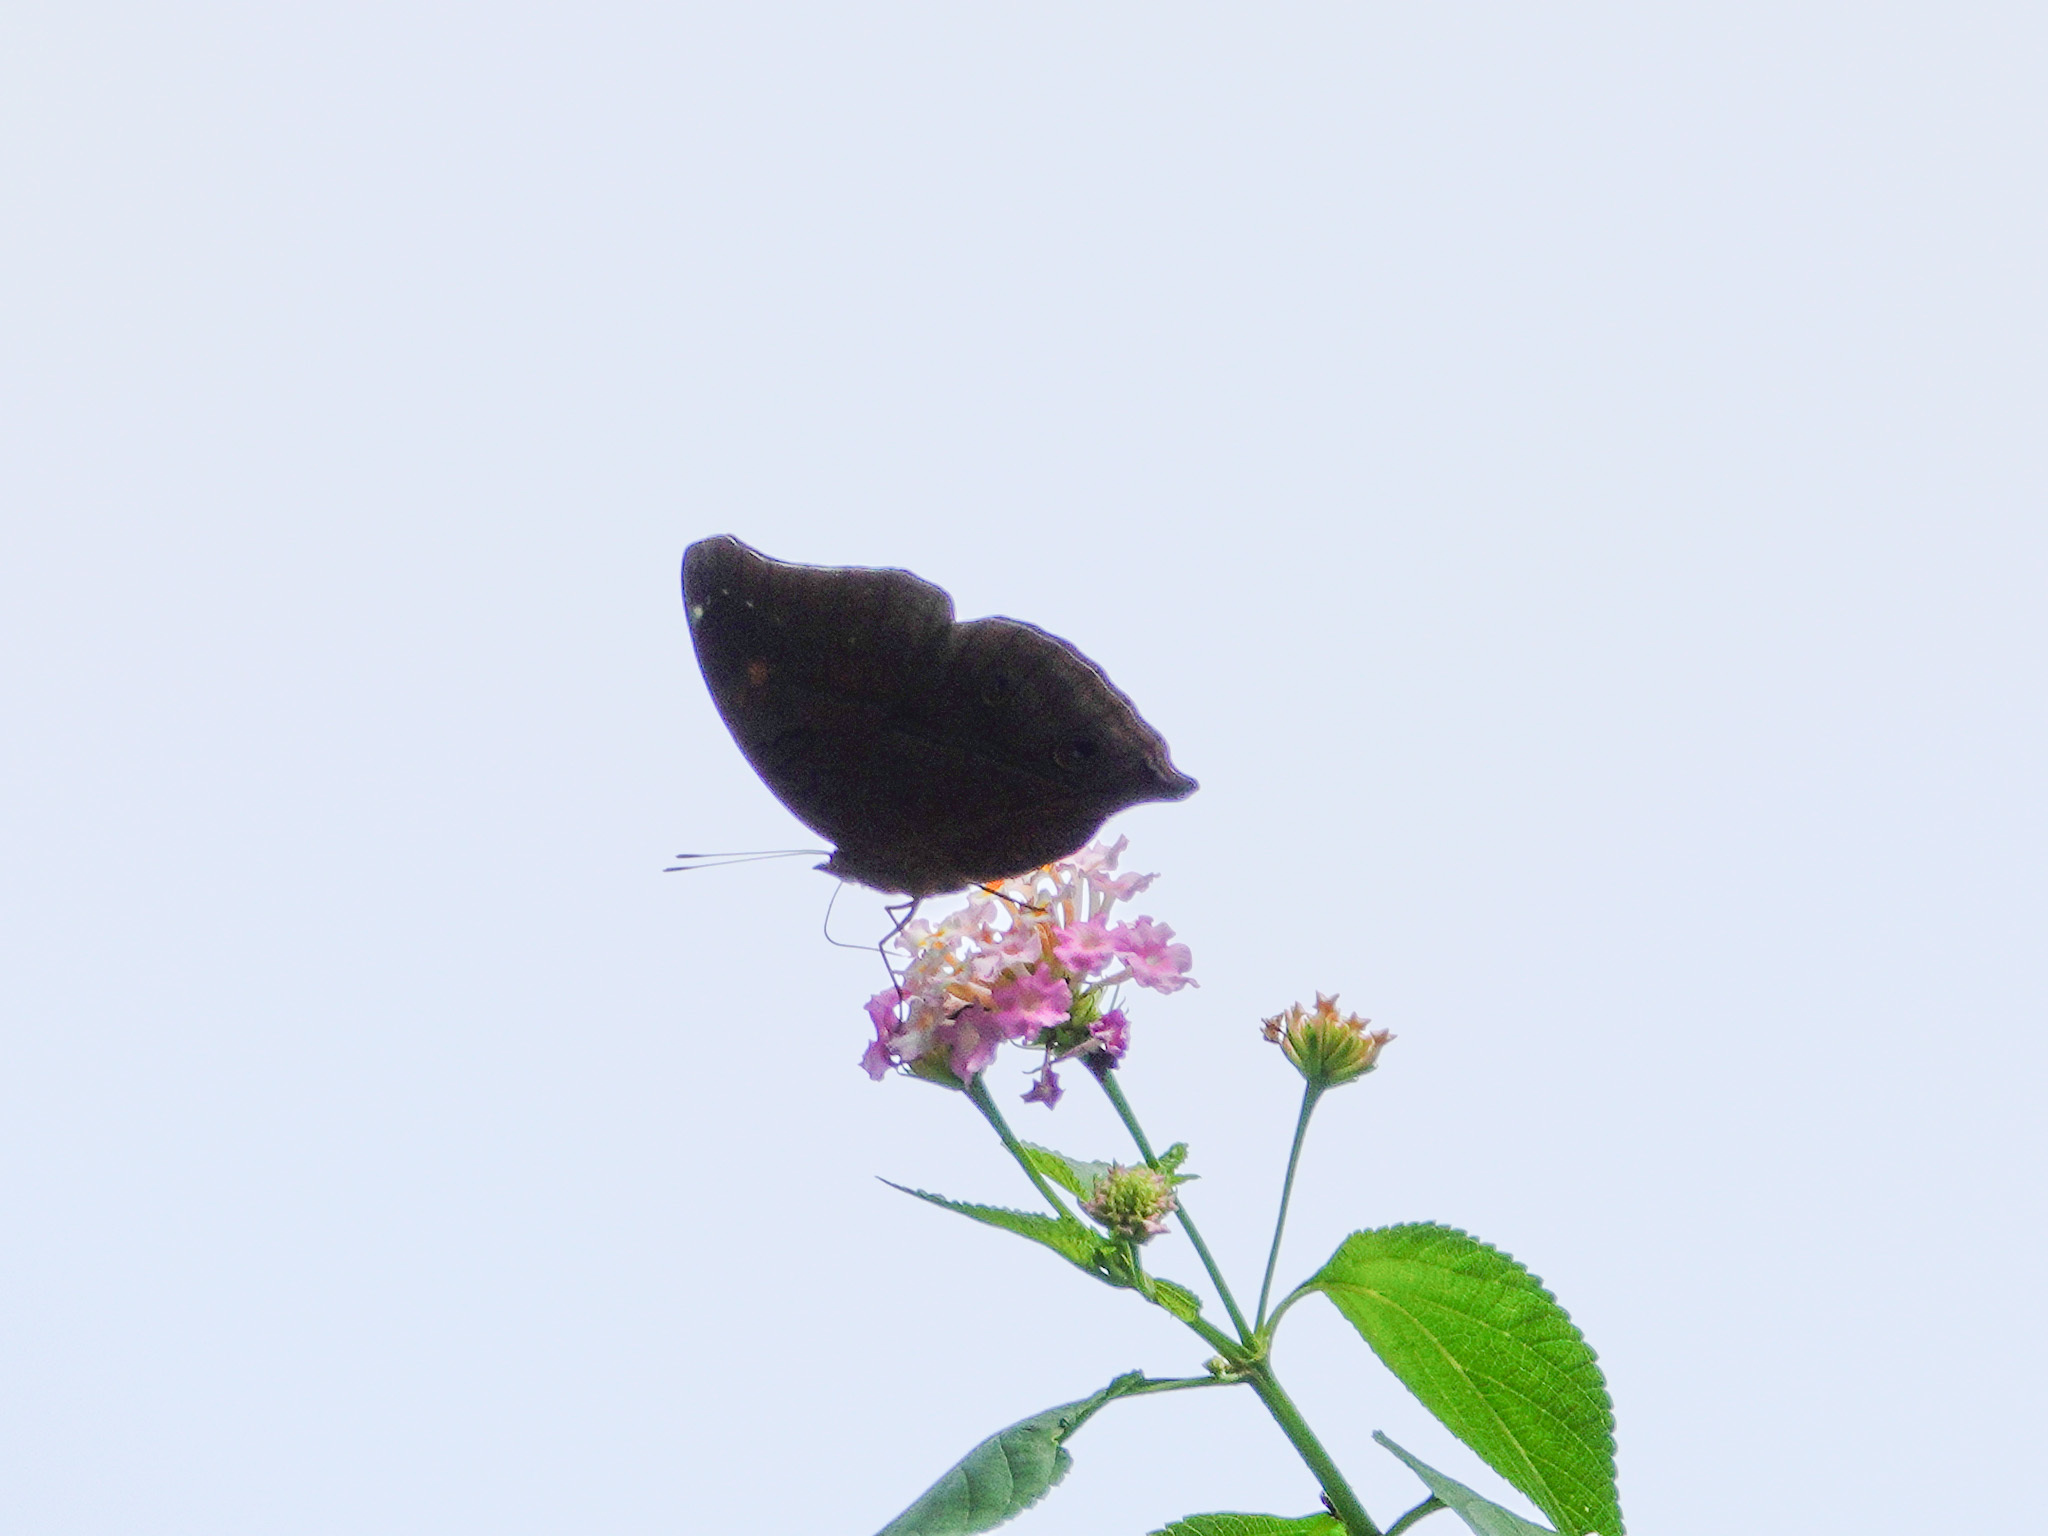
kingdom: Animalia
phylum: Arthropoda
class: Insecta
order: Lepidoptera
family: Nymphalidae
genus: Doleschallia
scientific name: Doleschallia bisaltide
